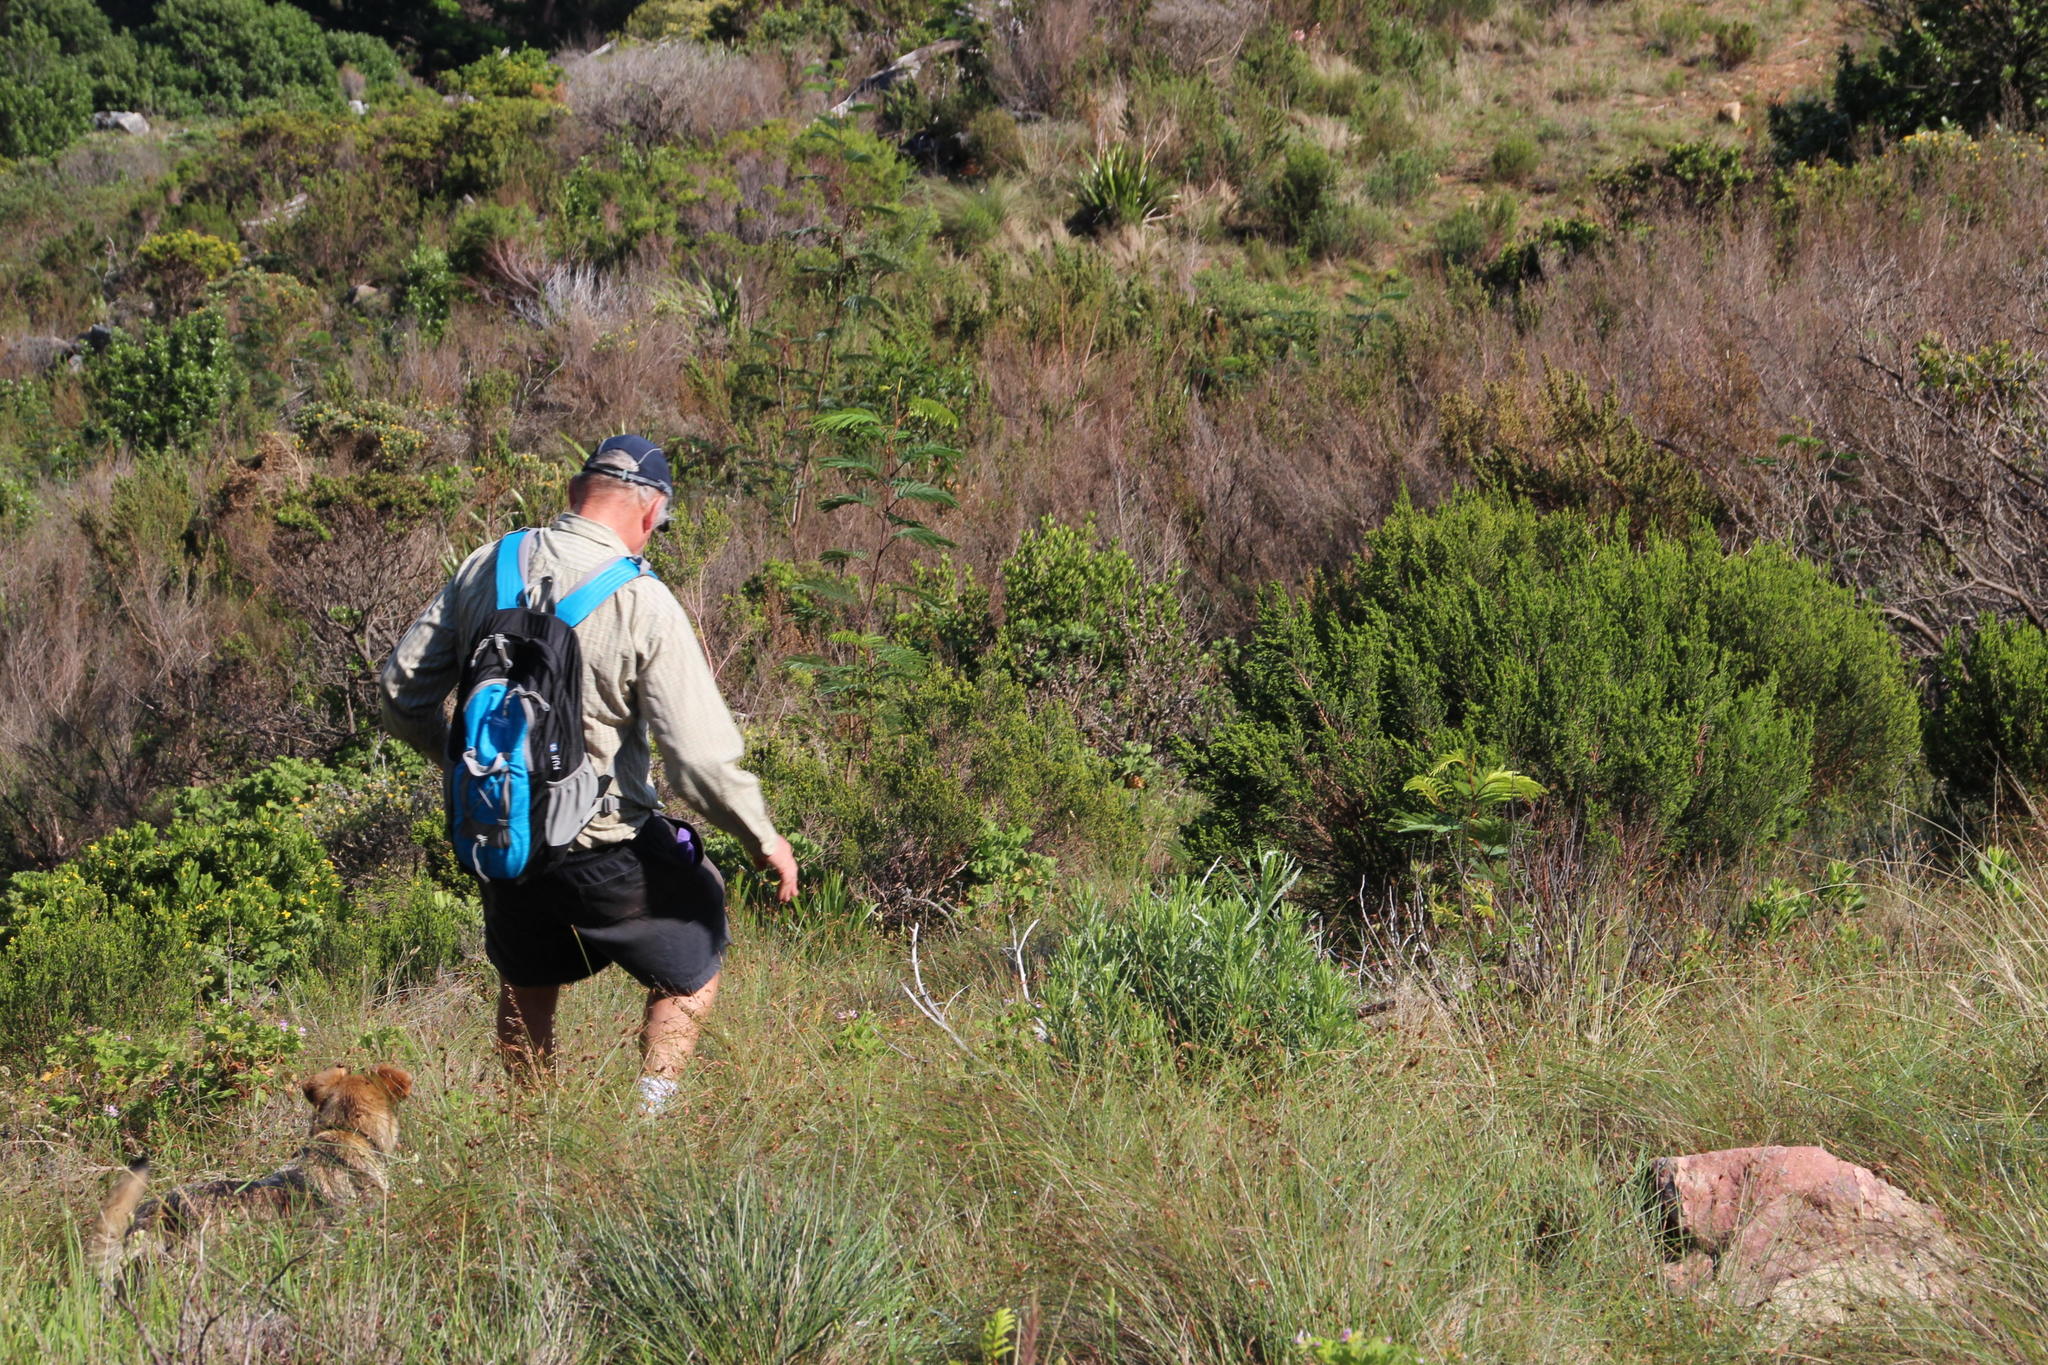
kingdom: Plantae
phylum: Tracheophyta
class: Magnoliopsida
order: Fabales
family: Fabaceae
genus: Paraserianthes
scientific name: Paraserianthes lophantha
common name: Plume albizia
